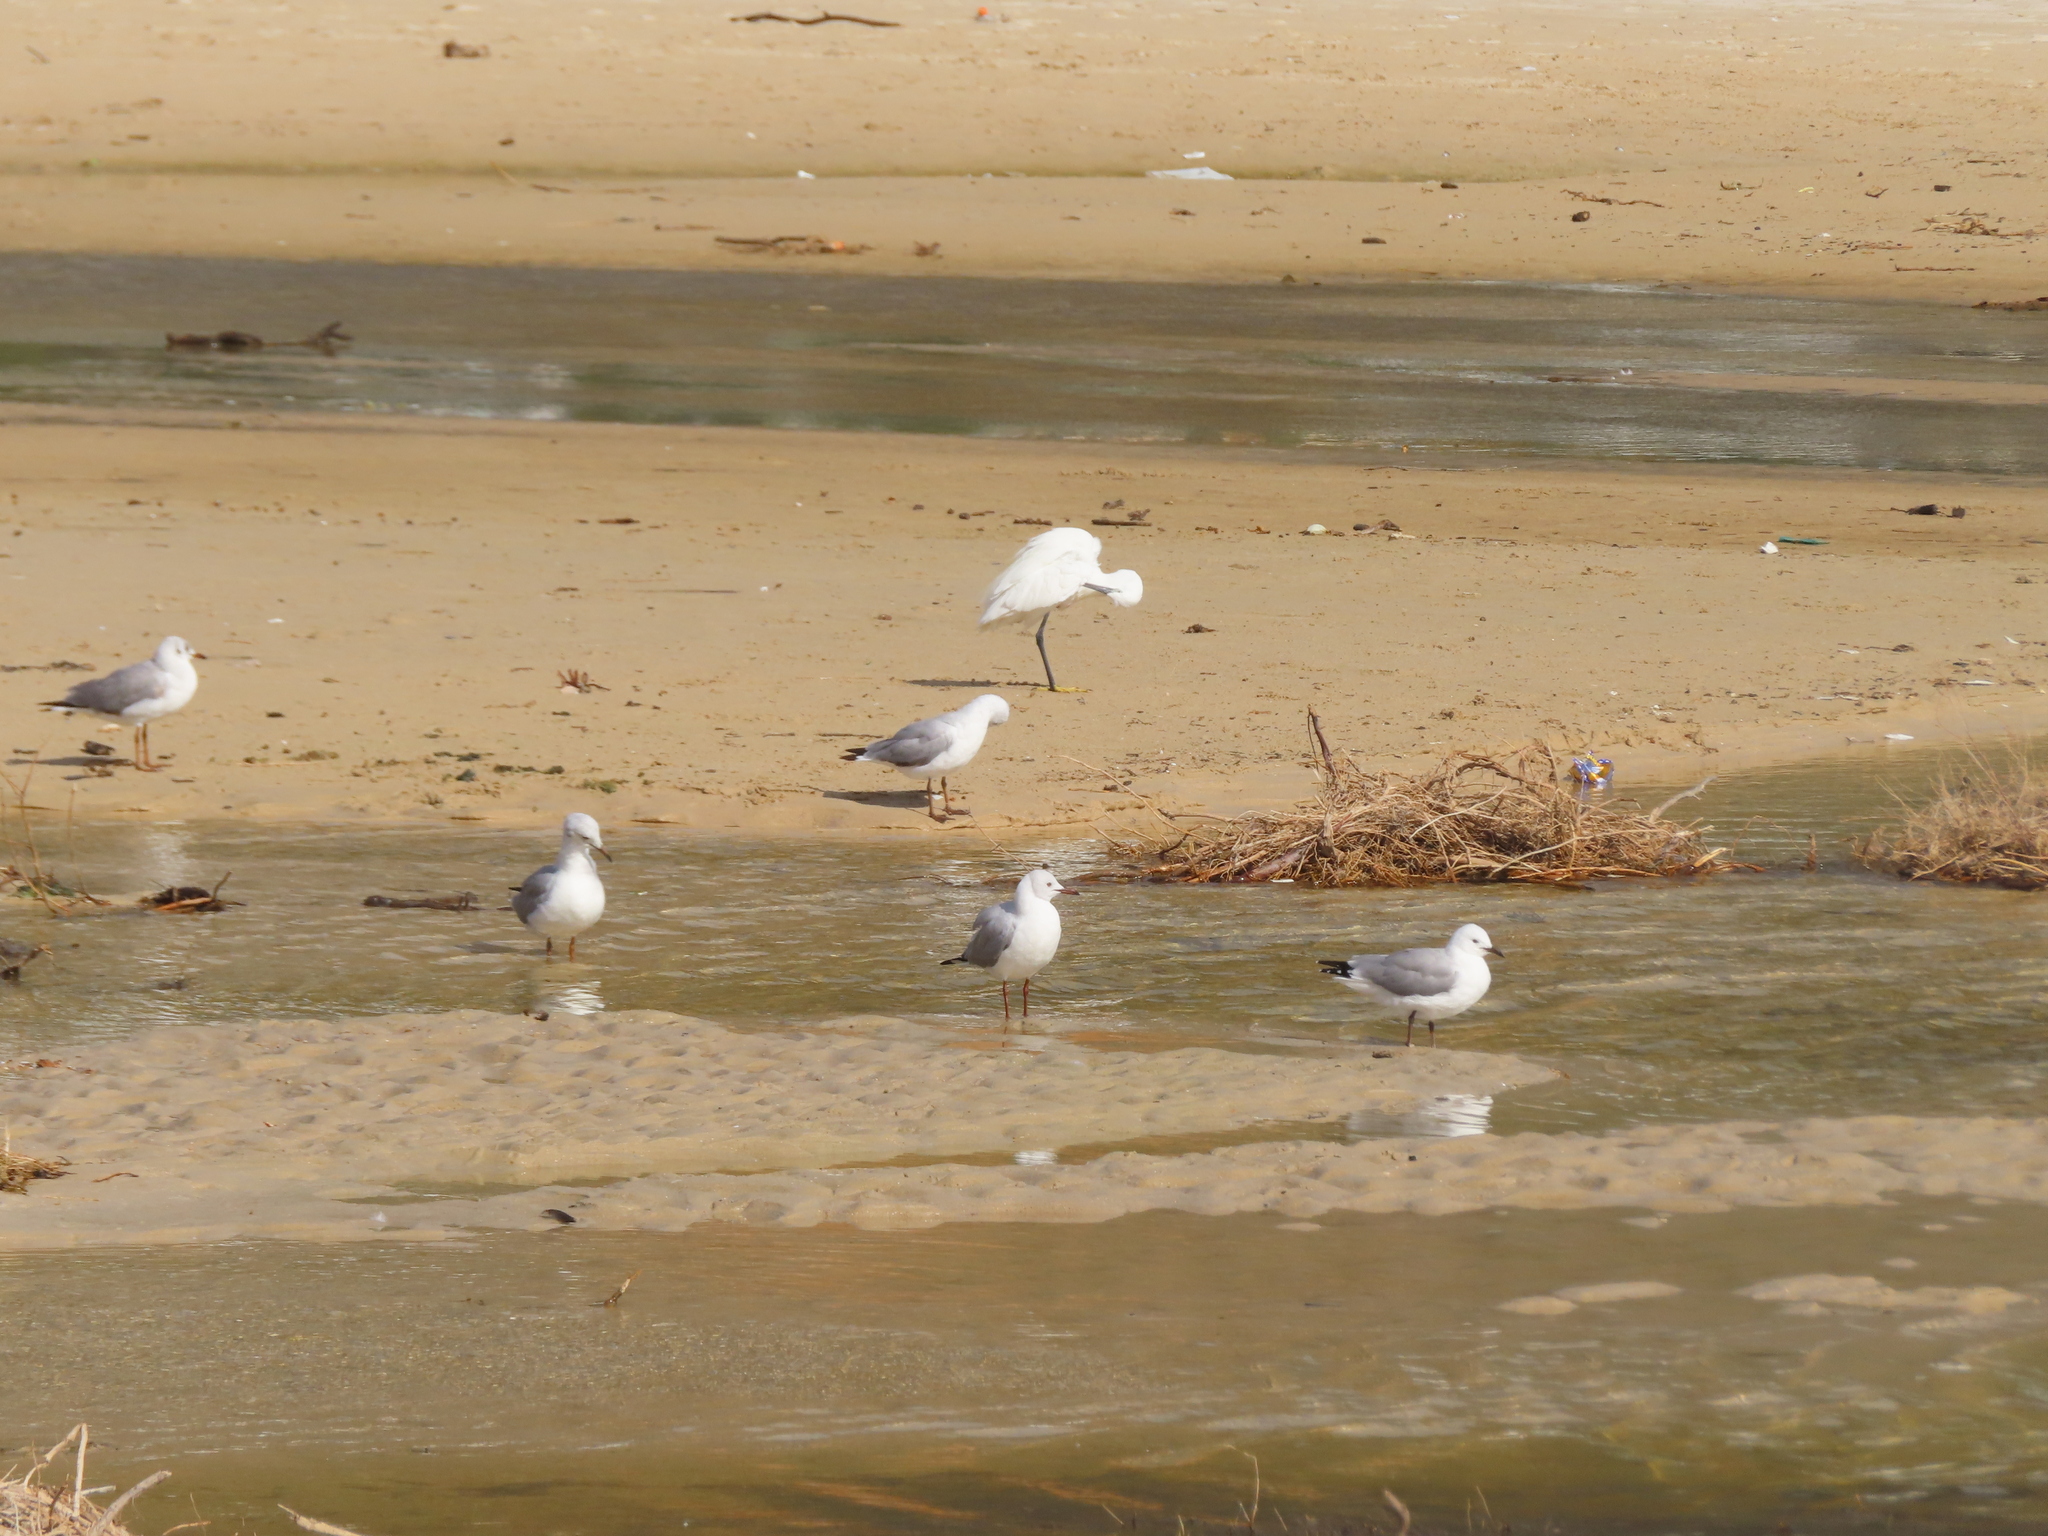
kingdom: Animalia
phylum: Chordata
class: Aves
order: Charadriiformes
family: Laridae
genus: Chroicocephalus
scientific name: Chroicocephalus hartlaubii
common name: Hartlaub's gull
